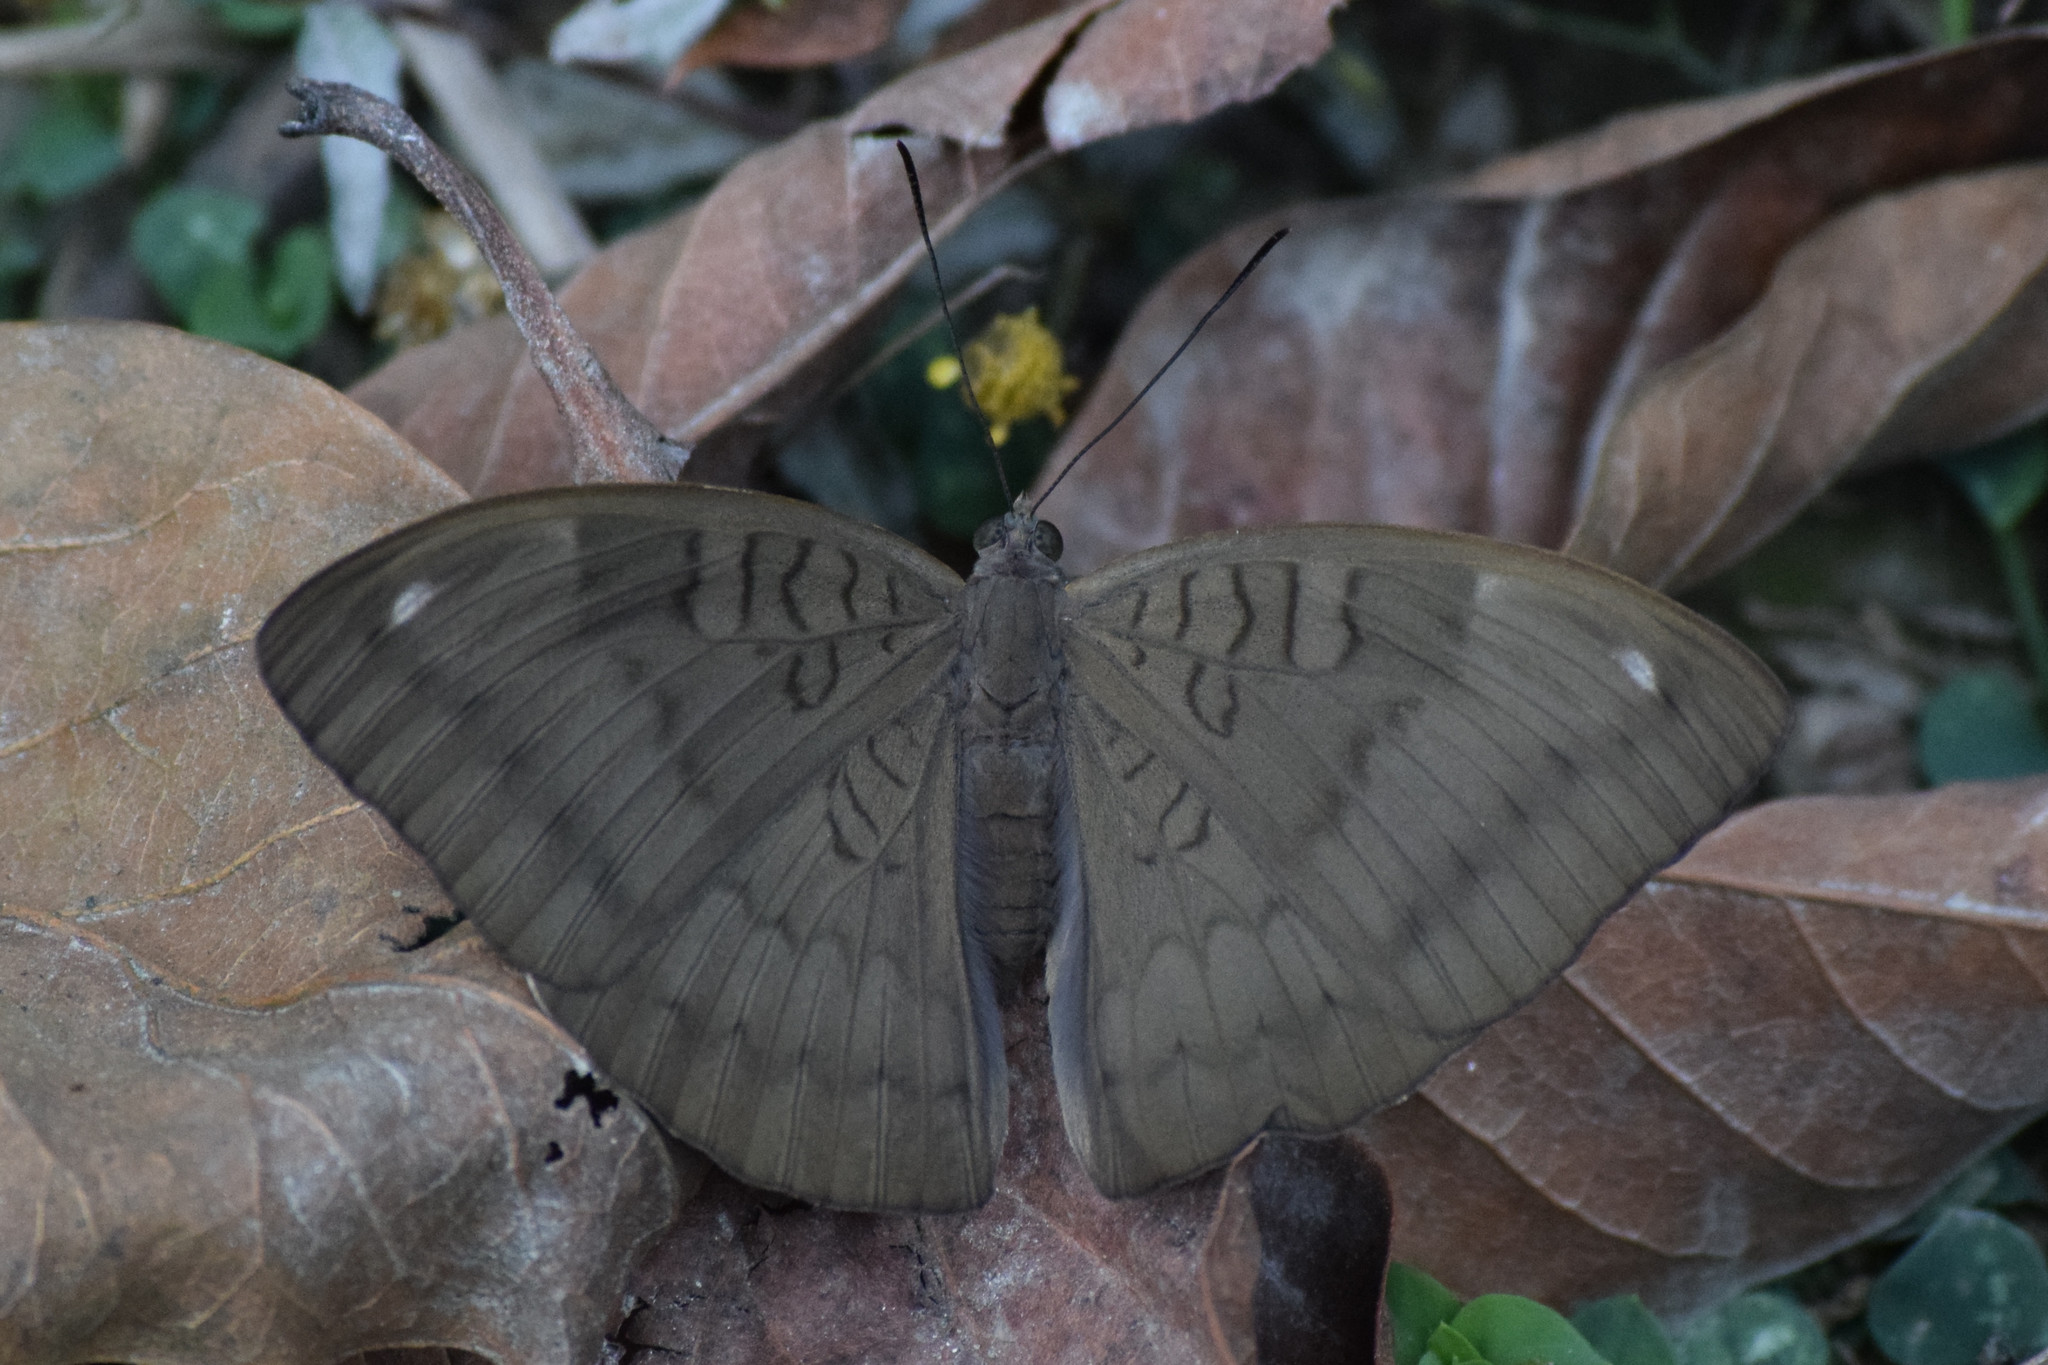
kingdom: Animalia
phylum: Arthropoda
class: Insecta
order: Lepidoptera
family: Nymphalidae
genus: Euthalia
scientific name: Euthalia aconthea
